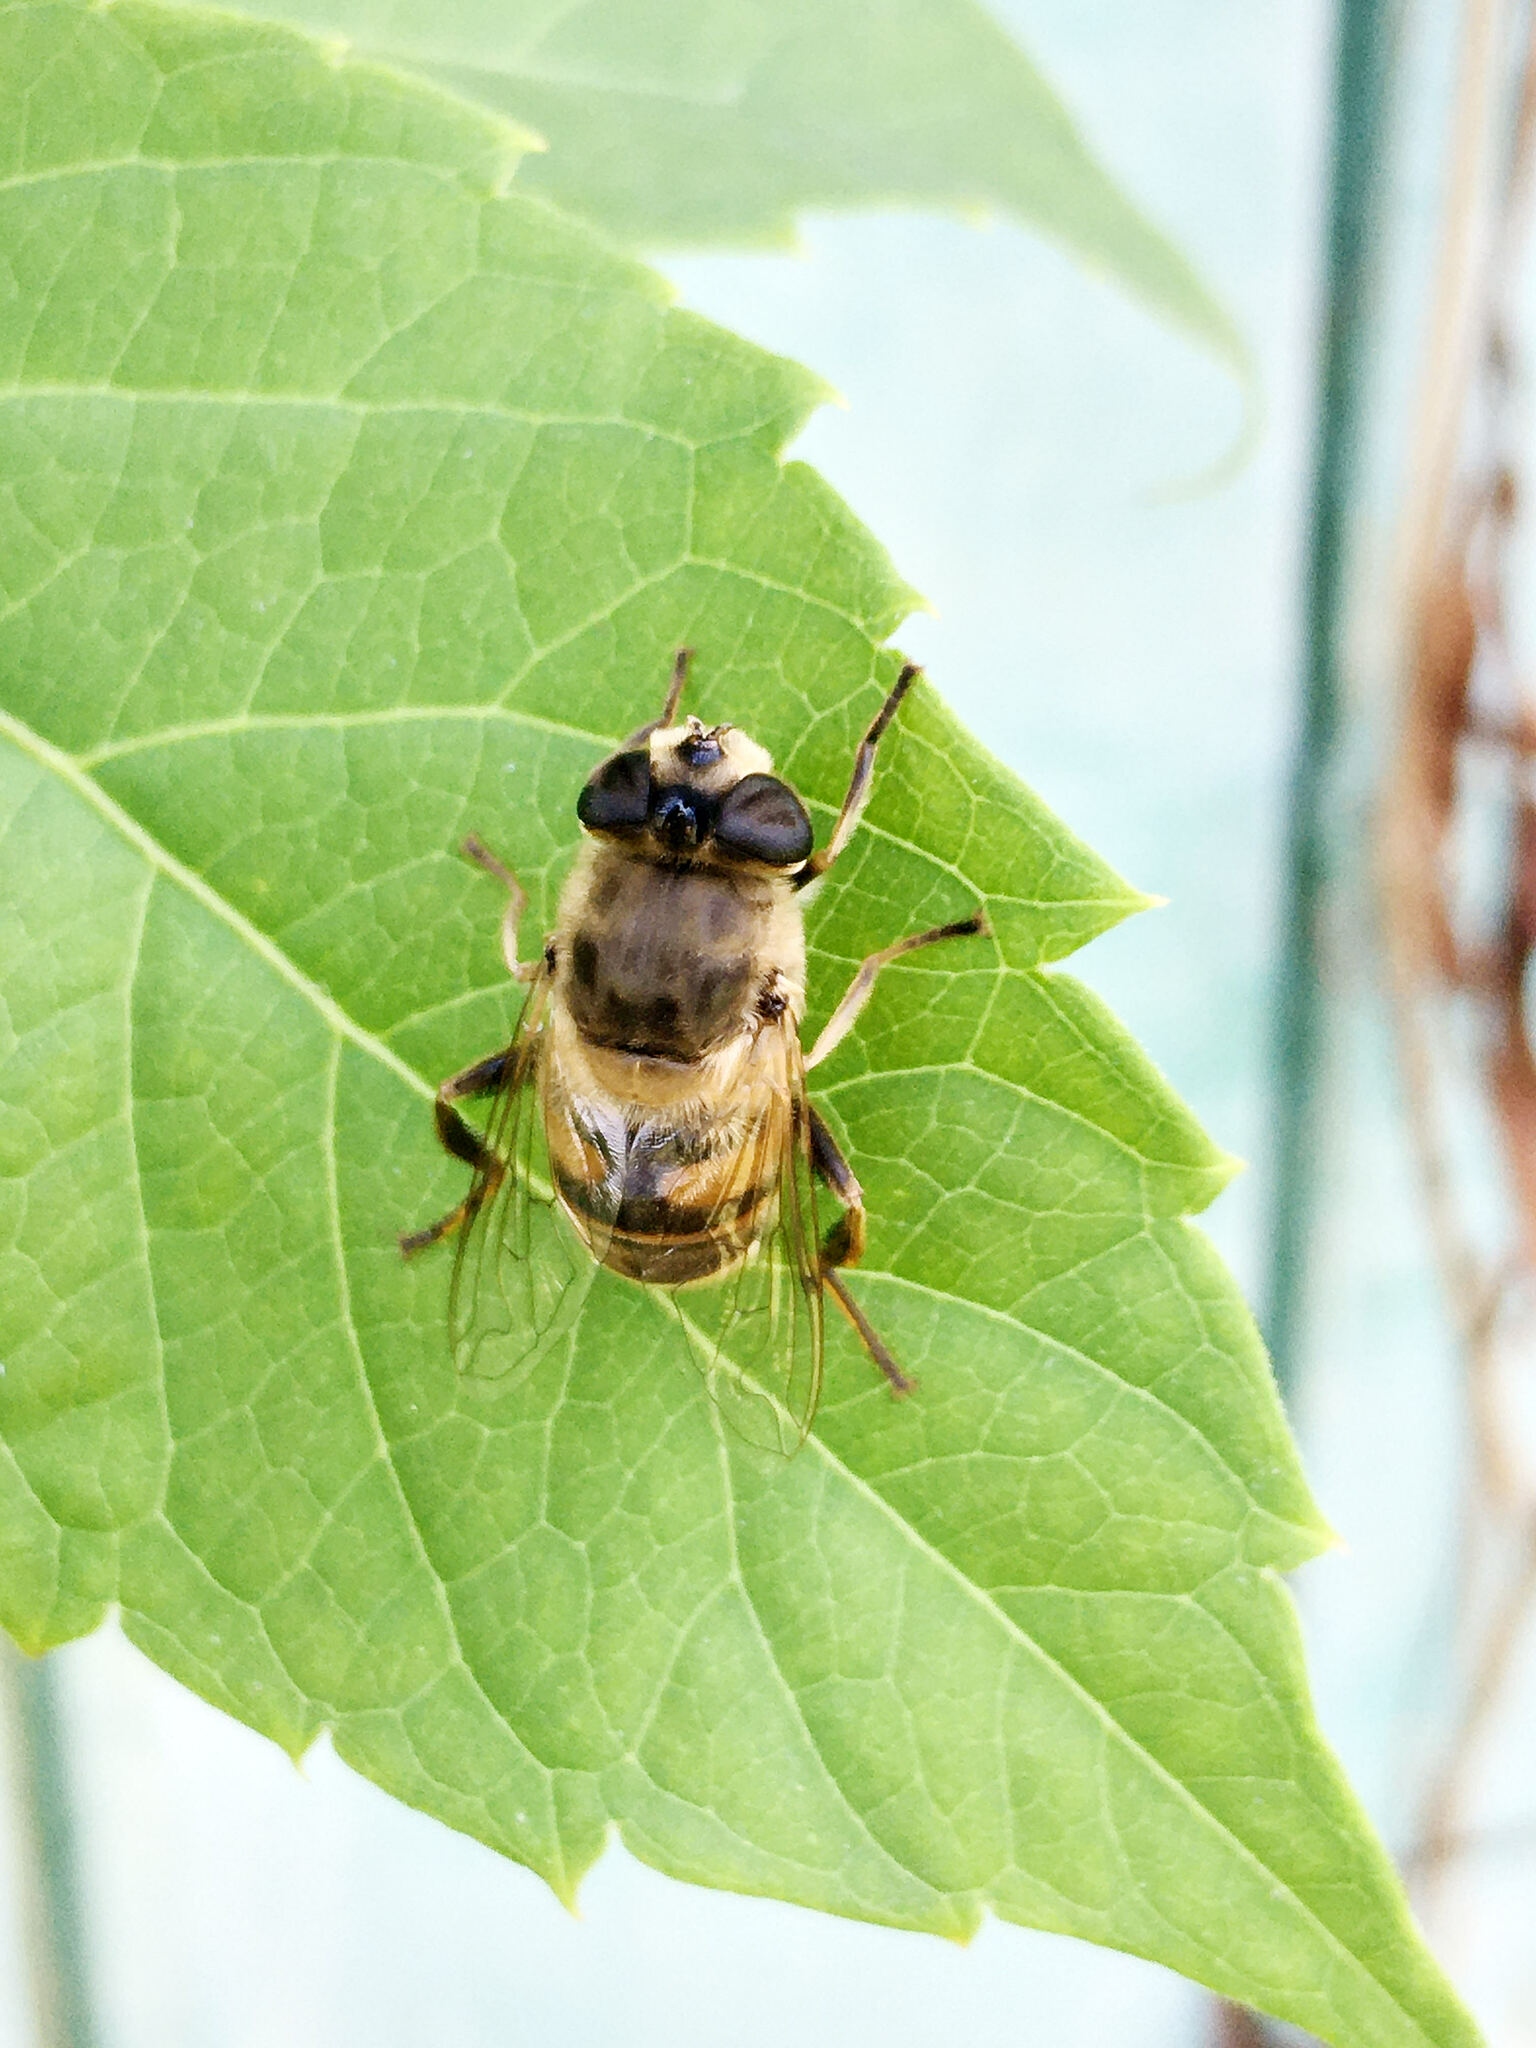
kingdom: Animalia
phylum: Arthropoda
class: Insecta
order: Diptera
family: Syrphidae
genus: Eristalis
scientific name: Eristalis tenax
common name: Drone fly
